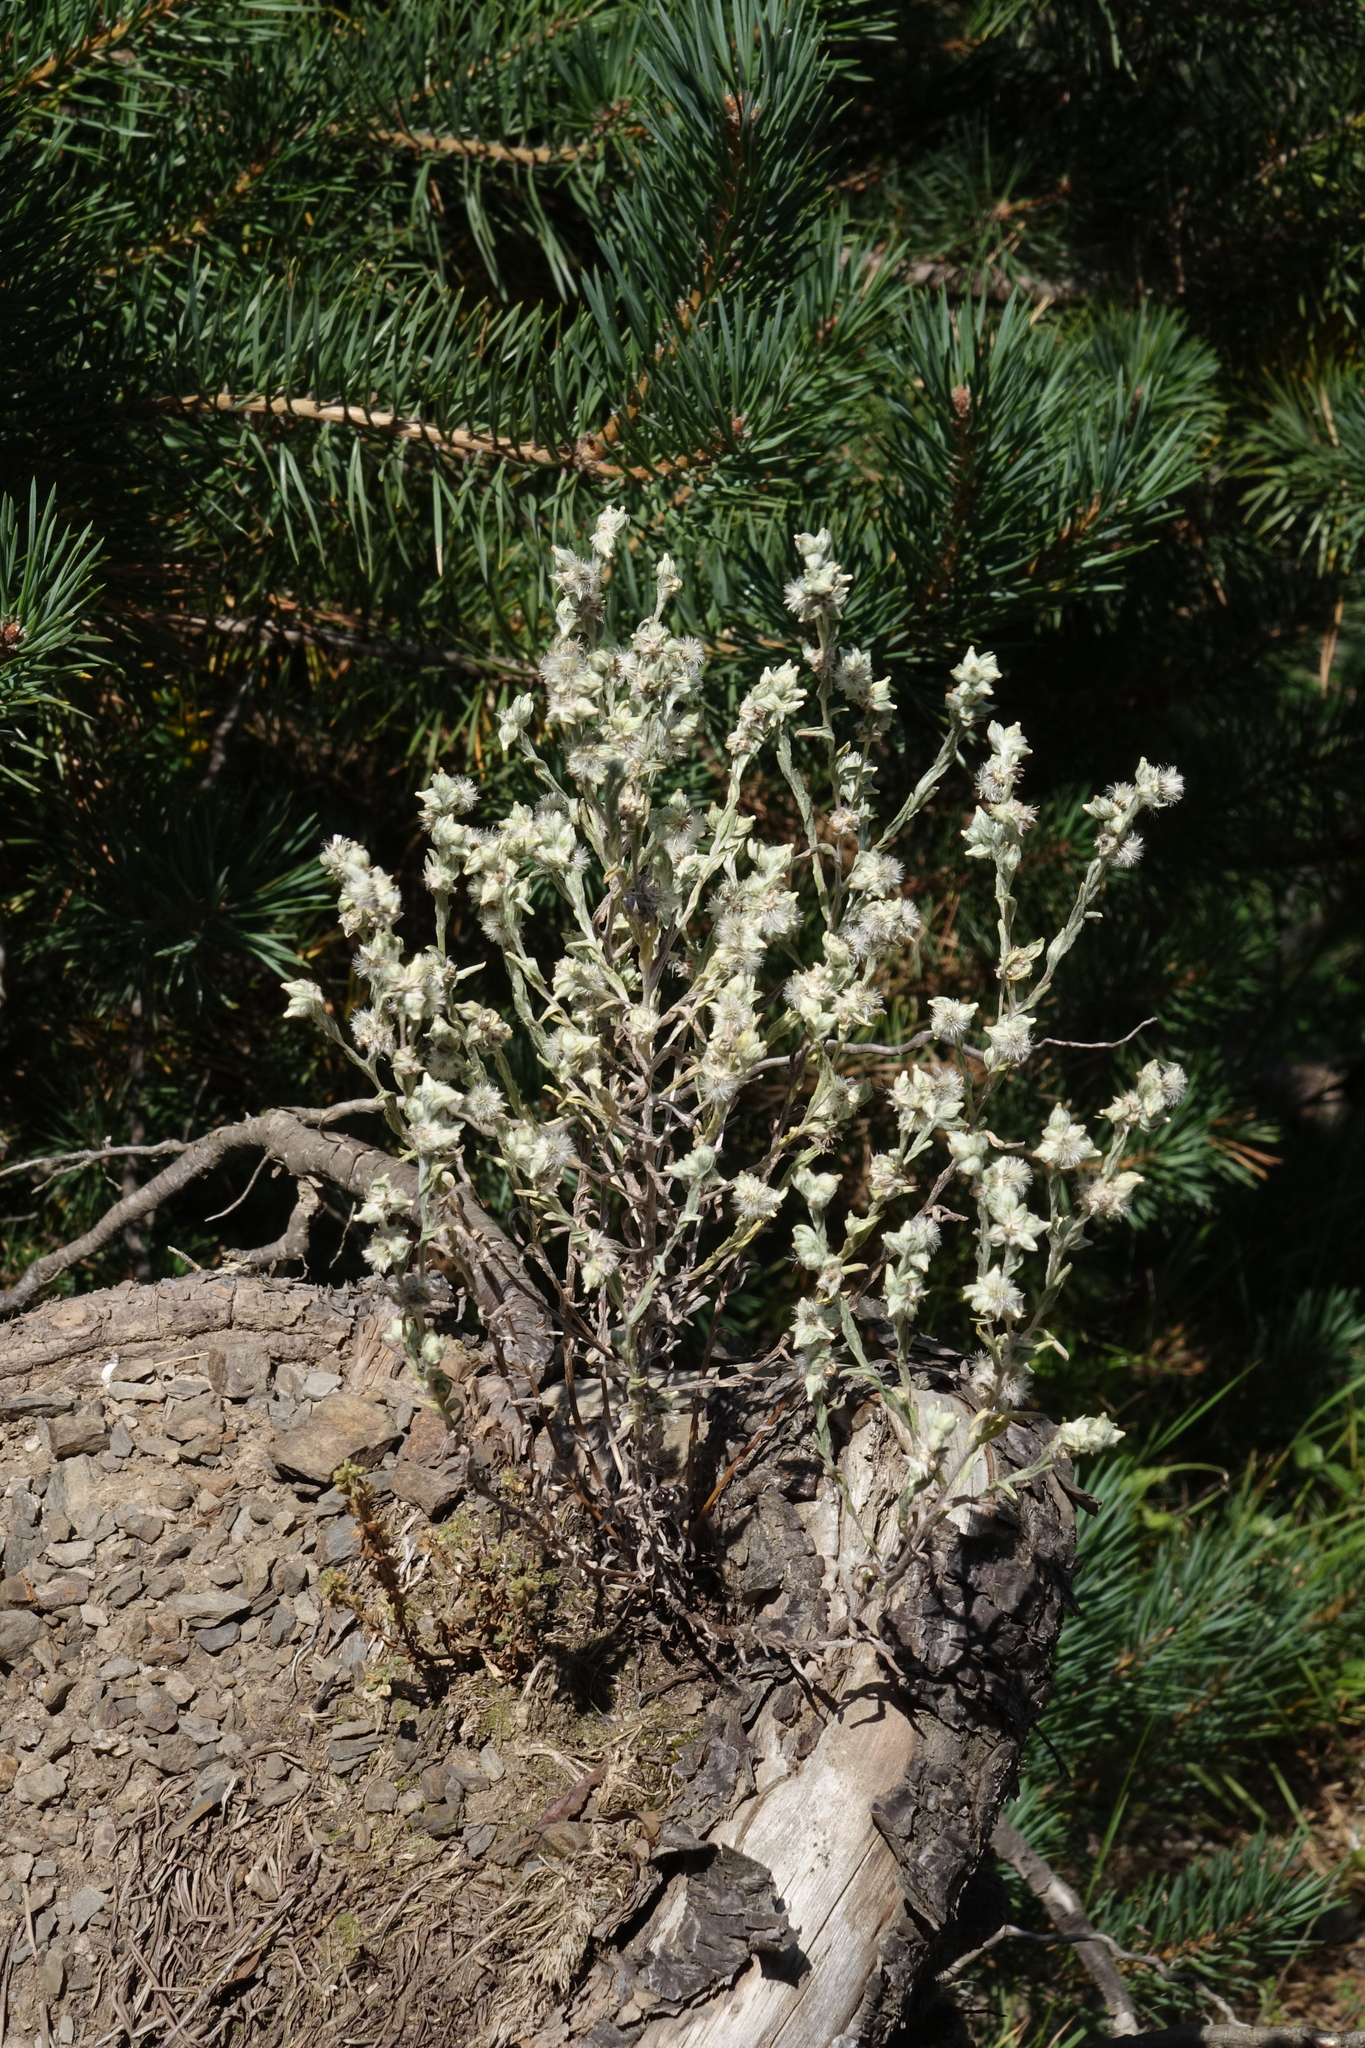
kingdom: Plantae
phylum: Tracheophyta
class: Magnoliopsida
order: Asterales
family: Asteraceae
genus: Filago
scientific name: Filago arvensis
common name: Field cudweed
